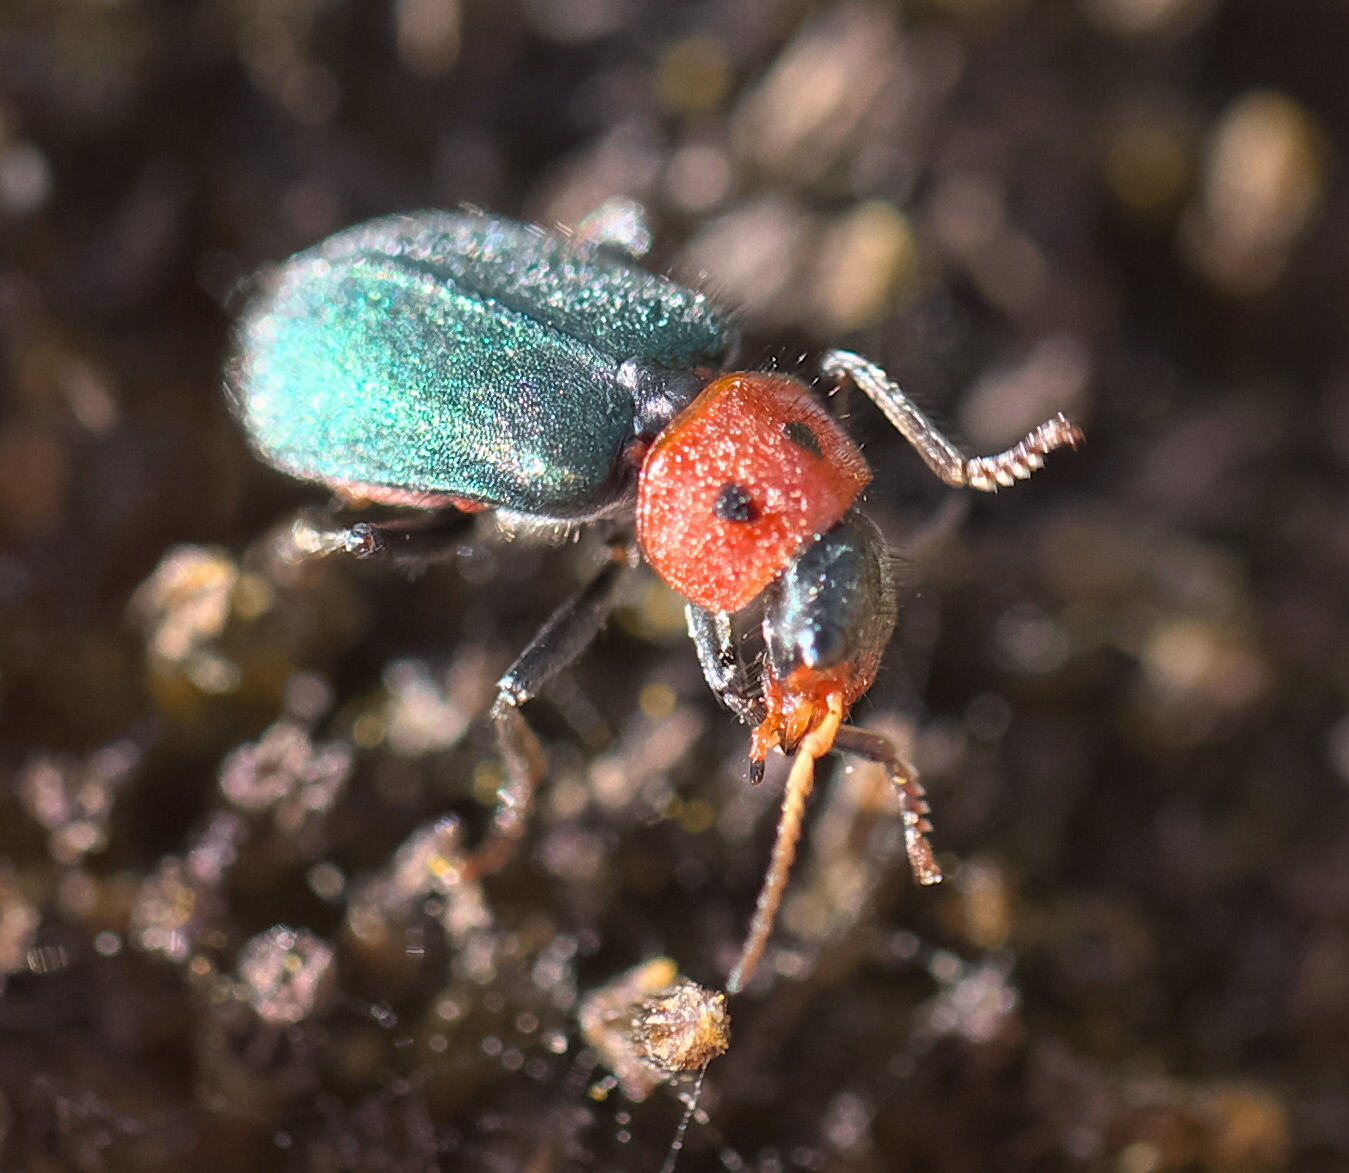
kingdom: Animalia
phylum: Arthropoda
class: Insecta
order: Coleoptera
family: Melyridae
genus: Collops
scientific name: Collops bipunctatus
